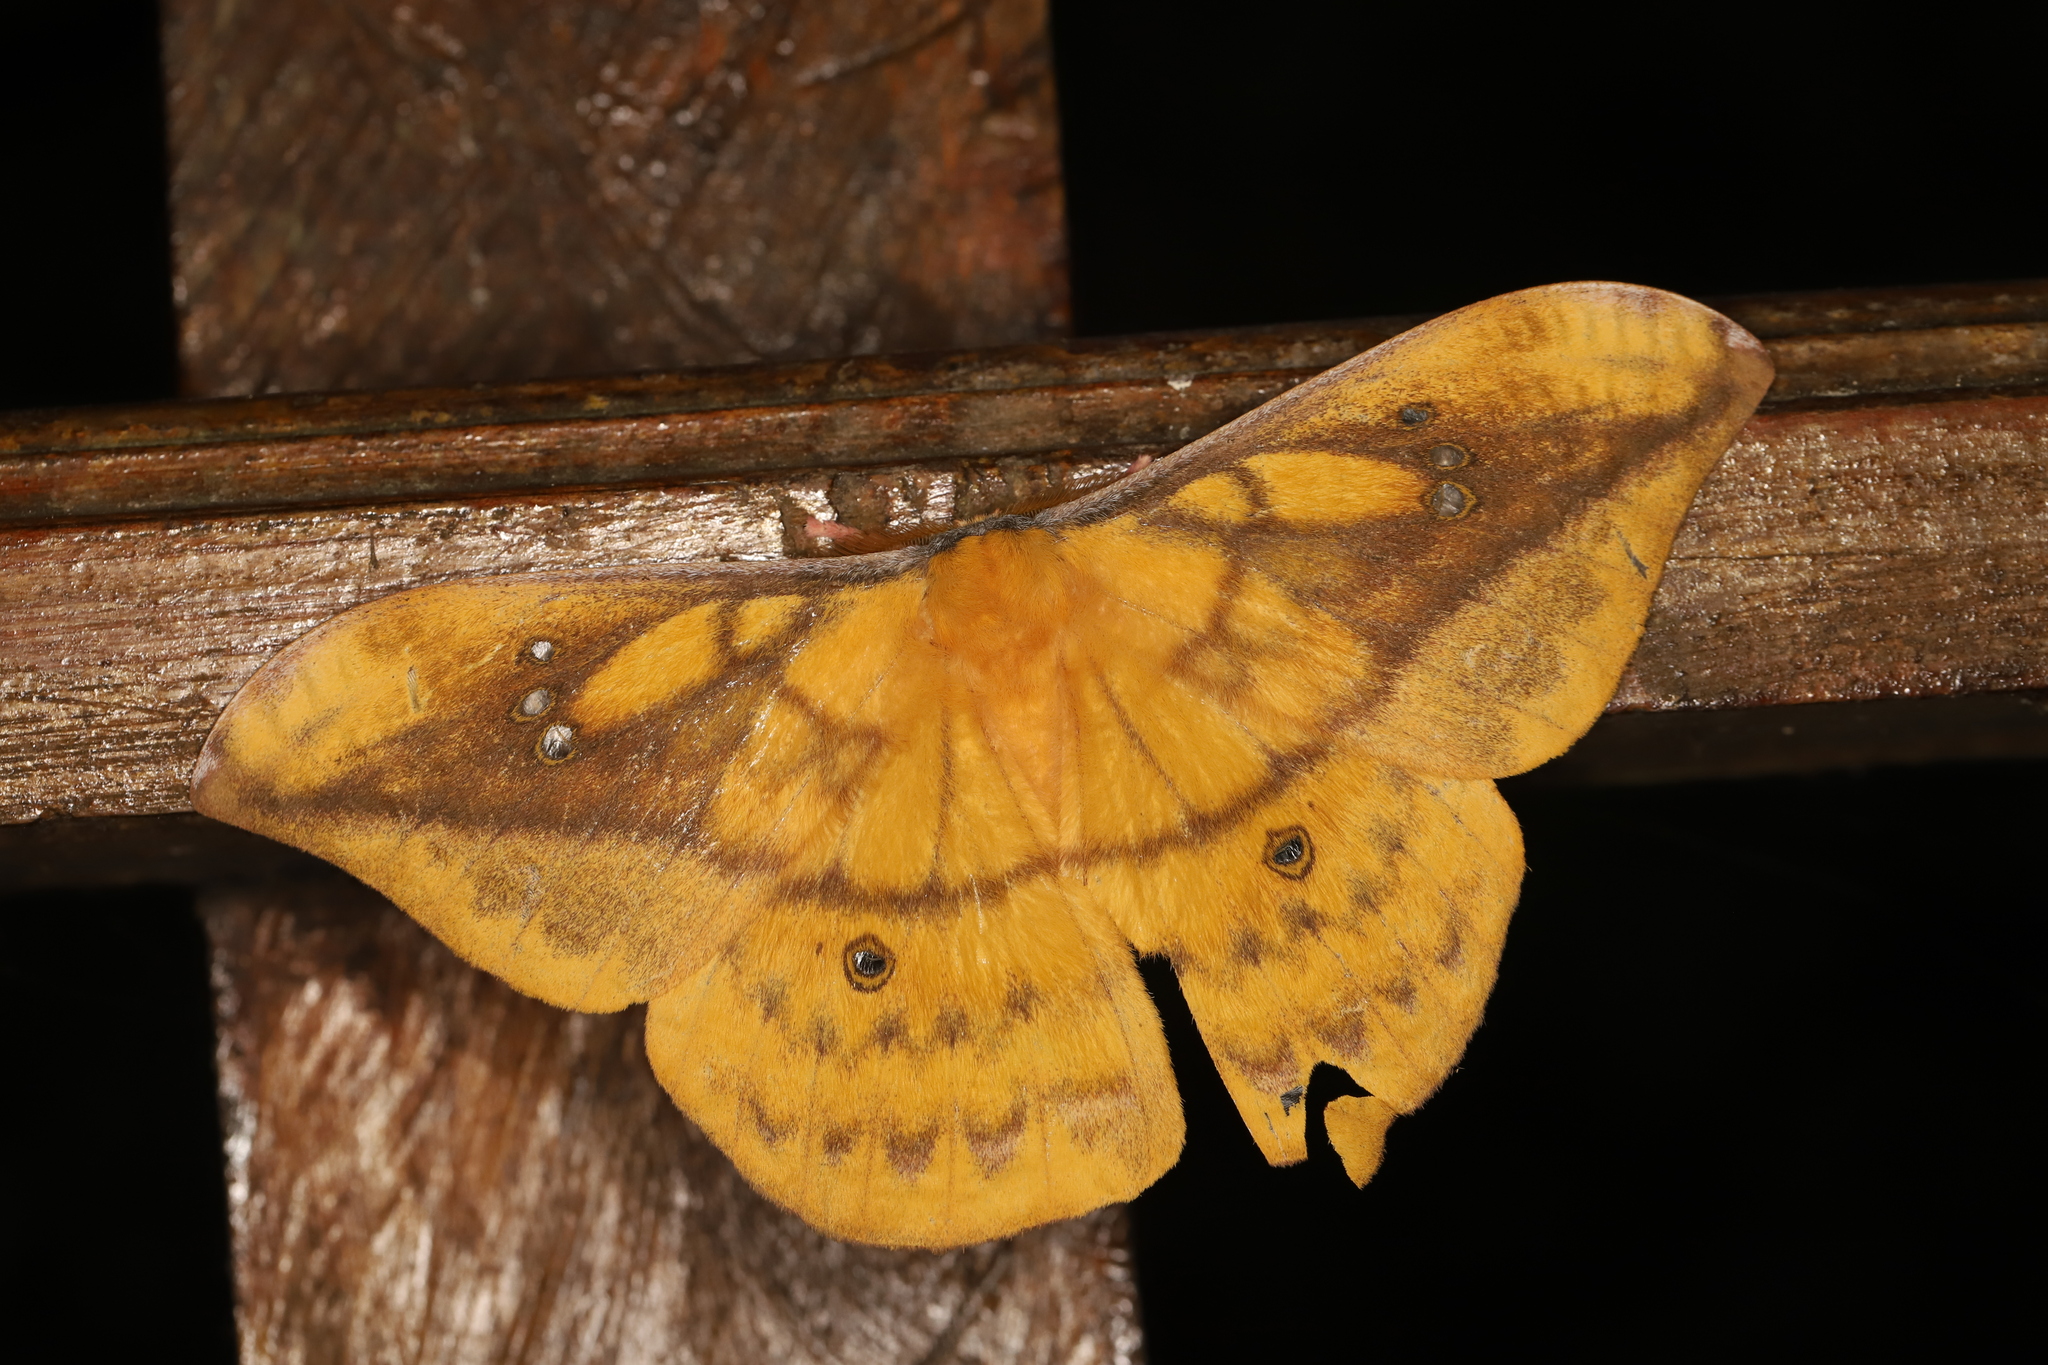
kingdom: Animalia
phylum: Arthropoda
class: Insecta
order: Lepidoptera
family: Saturniidae
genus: Copaxa
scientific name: Copaxa winbrechliniani
